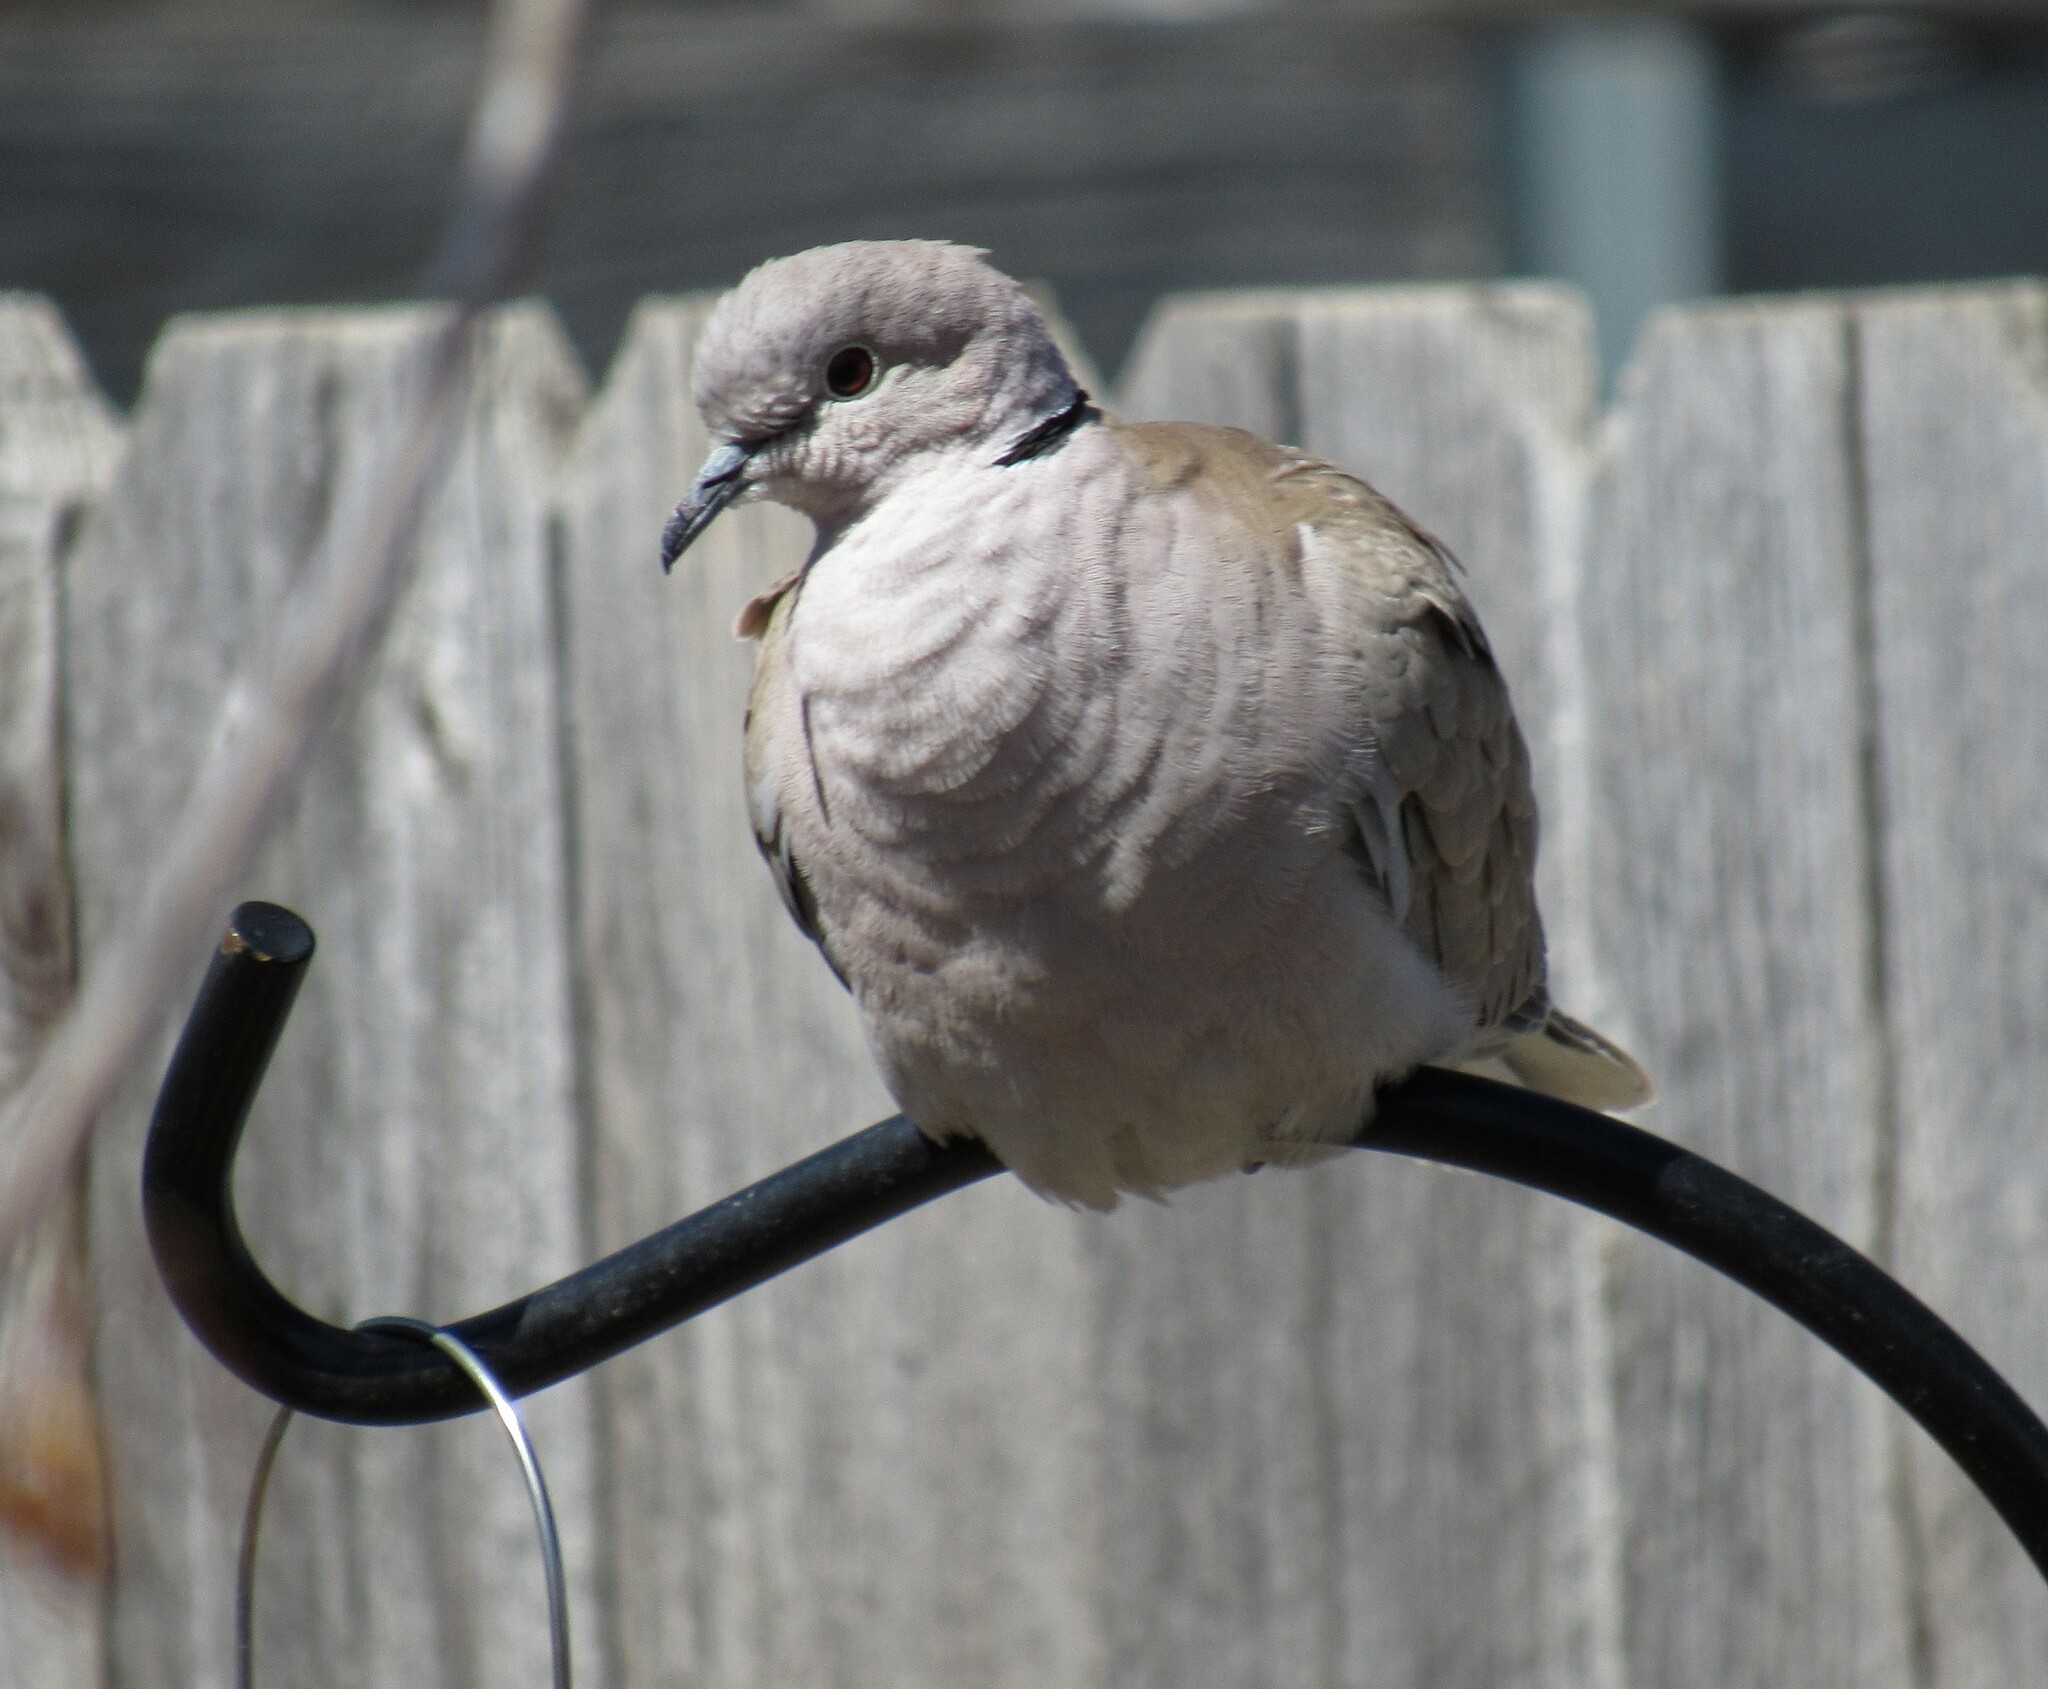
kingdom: Animalia
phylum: Chordata
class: Aves
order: Columbiformes
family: Columbidae
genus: Streptopelia
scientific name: Streptopelia decaocto
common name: Eurasian collared dove
